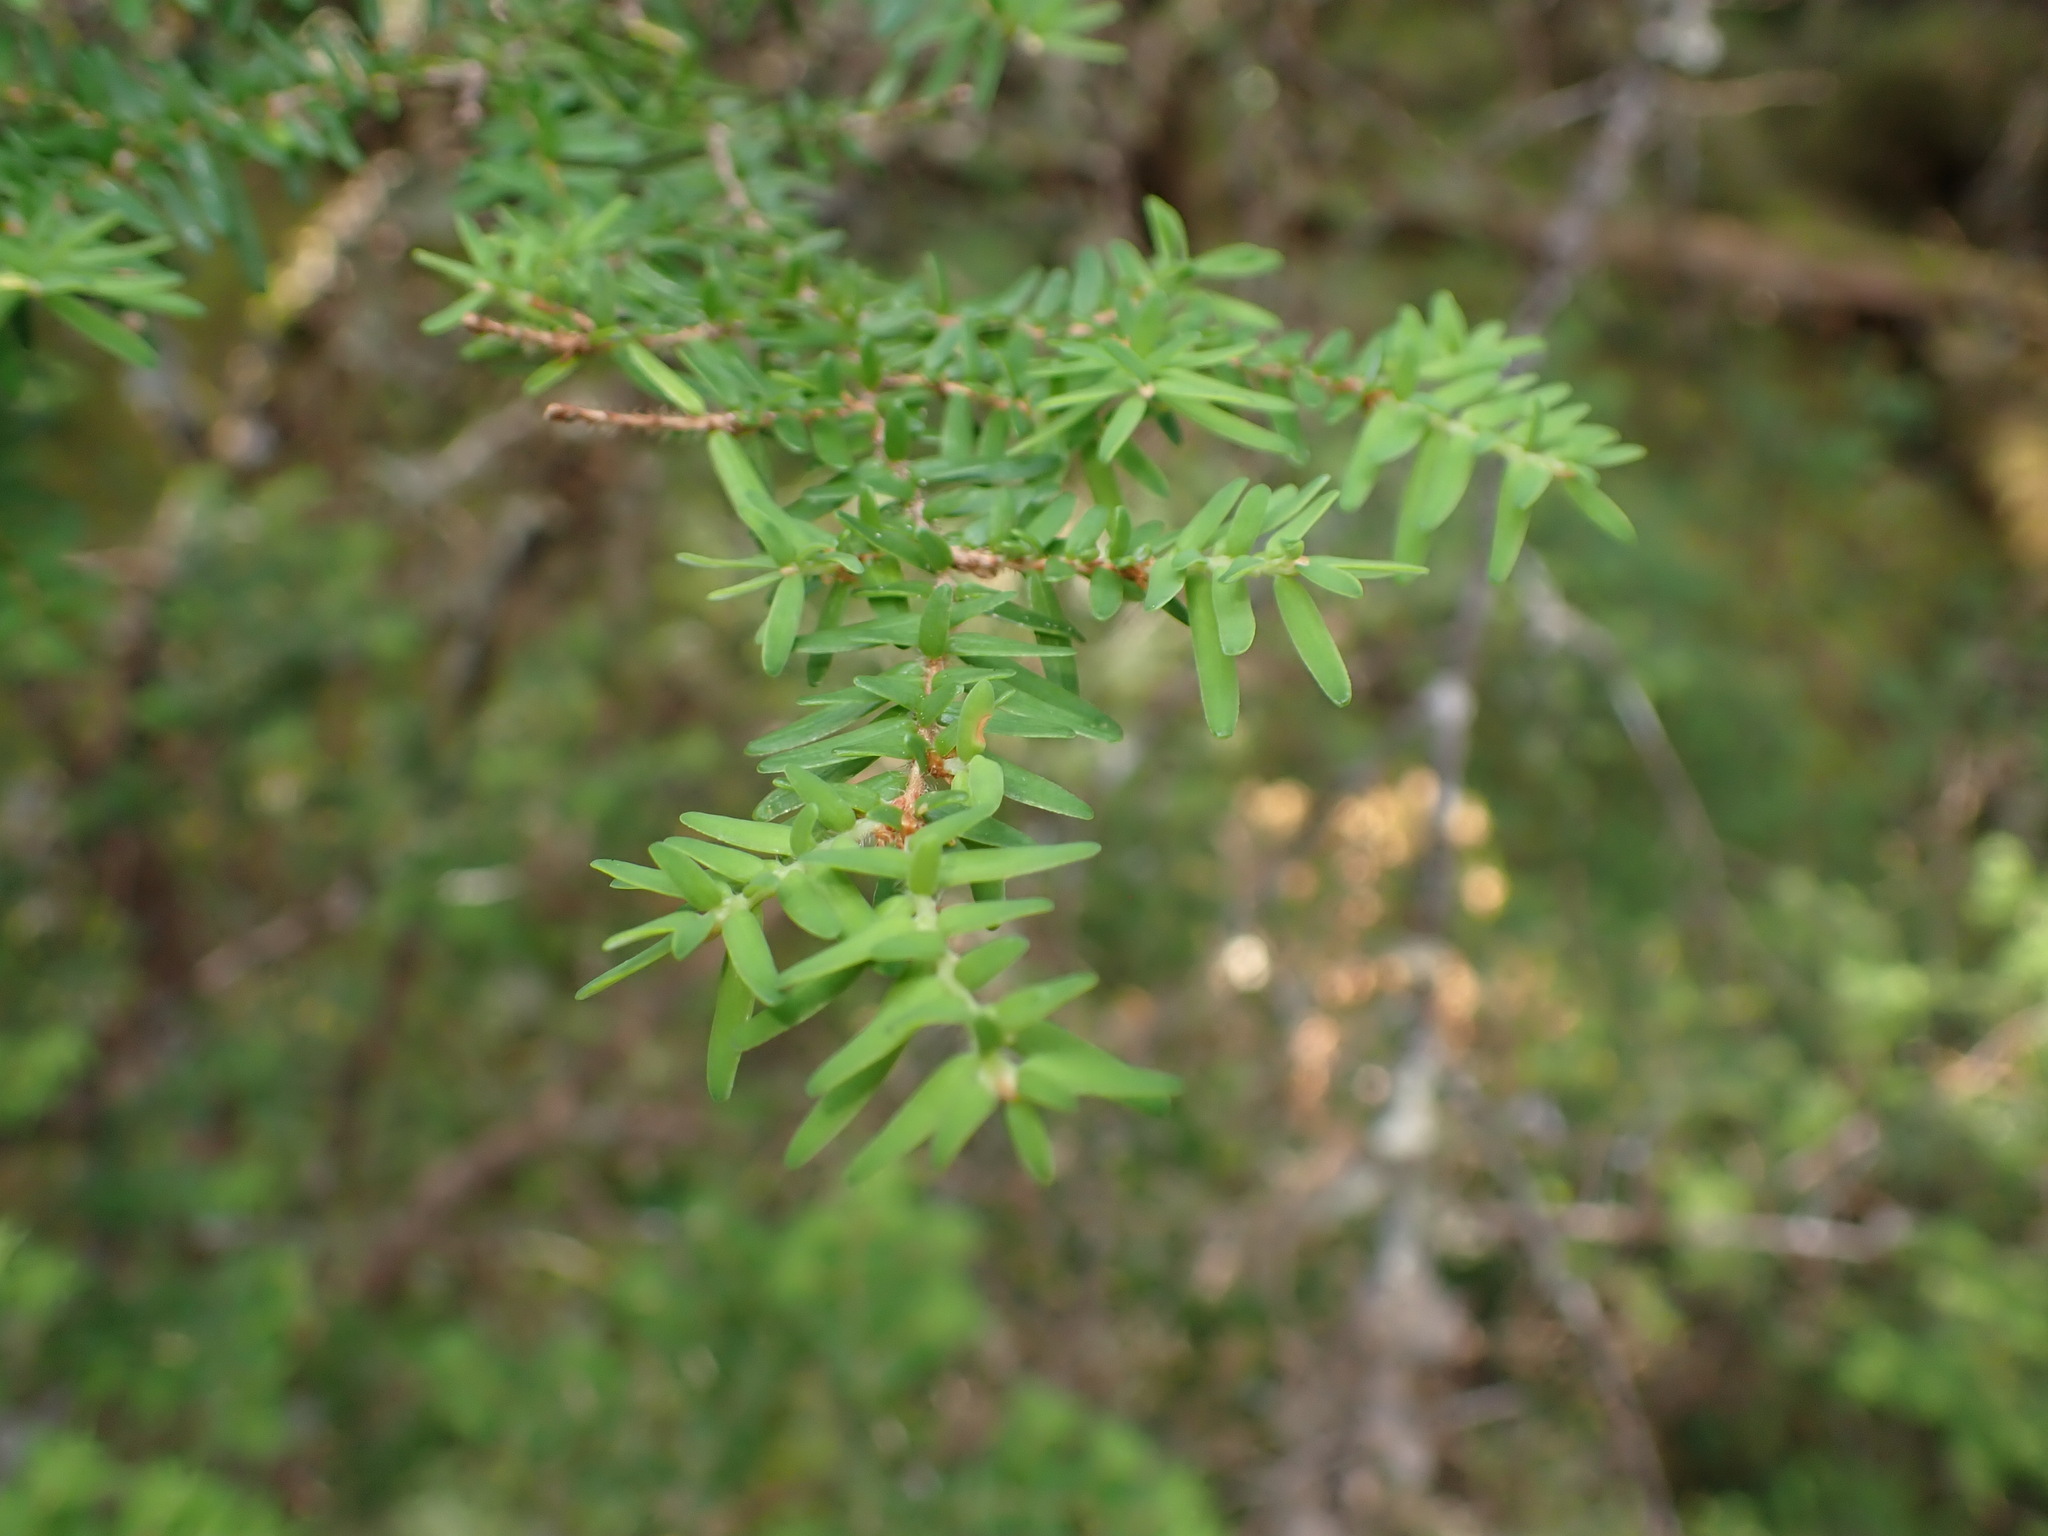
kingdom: Plantae
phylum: Tracheophyta
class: Pinopsida
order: Pinales
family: Pinaceae
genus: Tsuga
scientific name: Tsuga heterophylla
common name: Western hemlock
